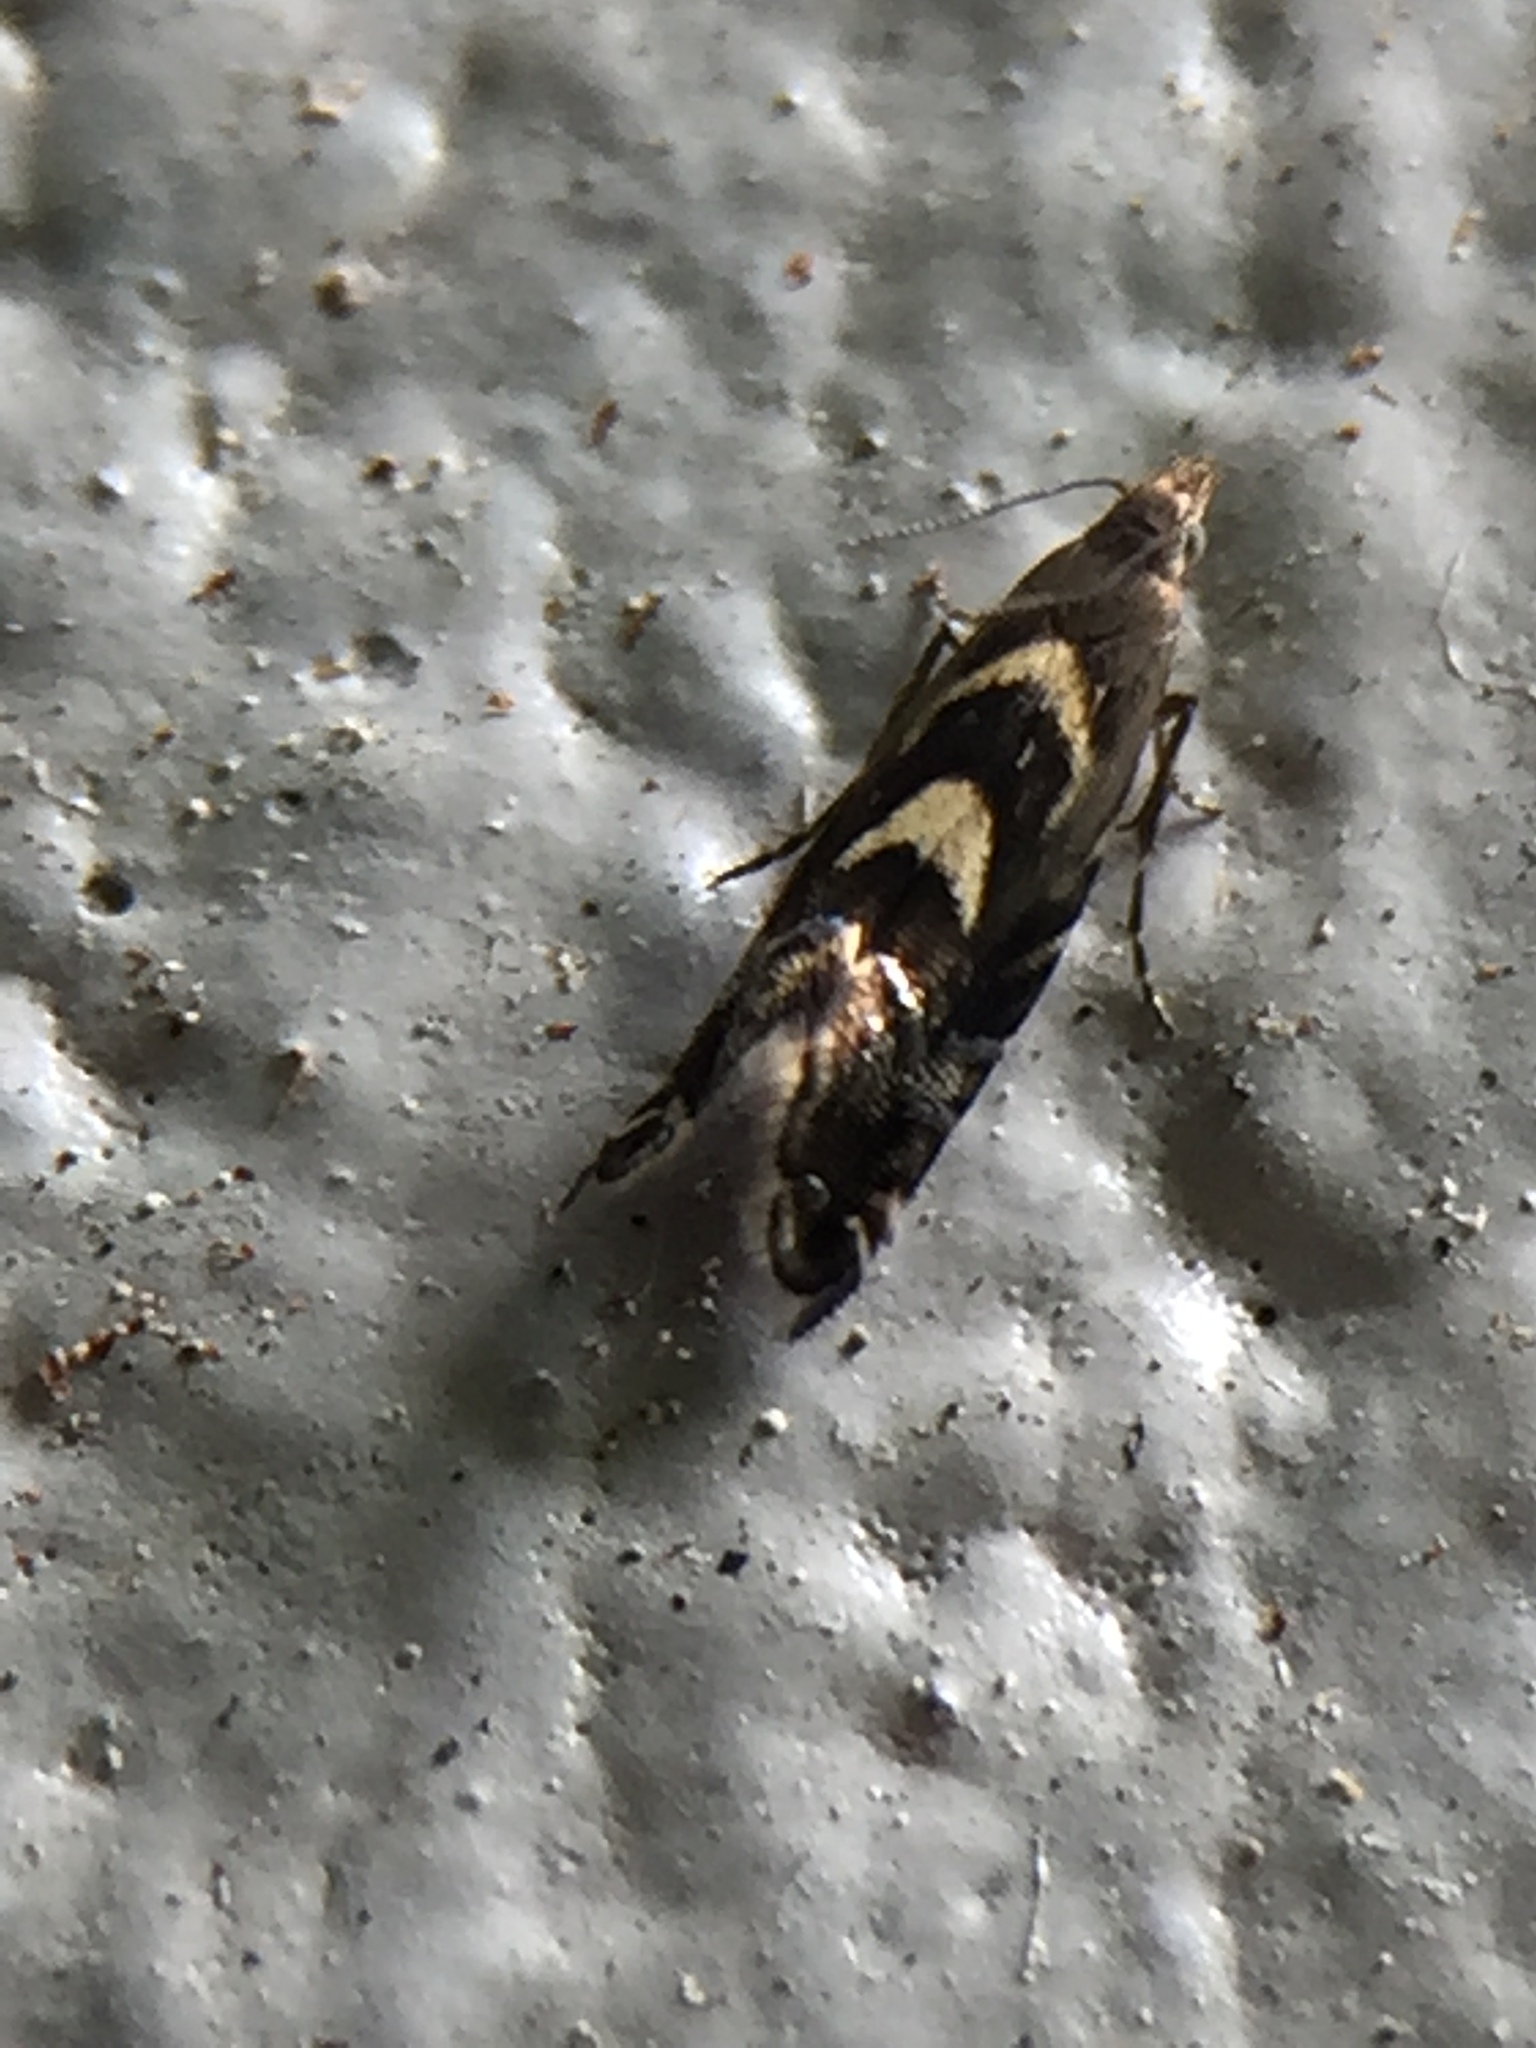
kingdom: Animalia
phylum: Arthropoda
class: Insecta
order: Lepidoptera
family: Glyphipterigidae
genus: Glyphipterix
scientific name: Glyphipterix asteronota
